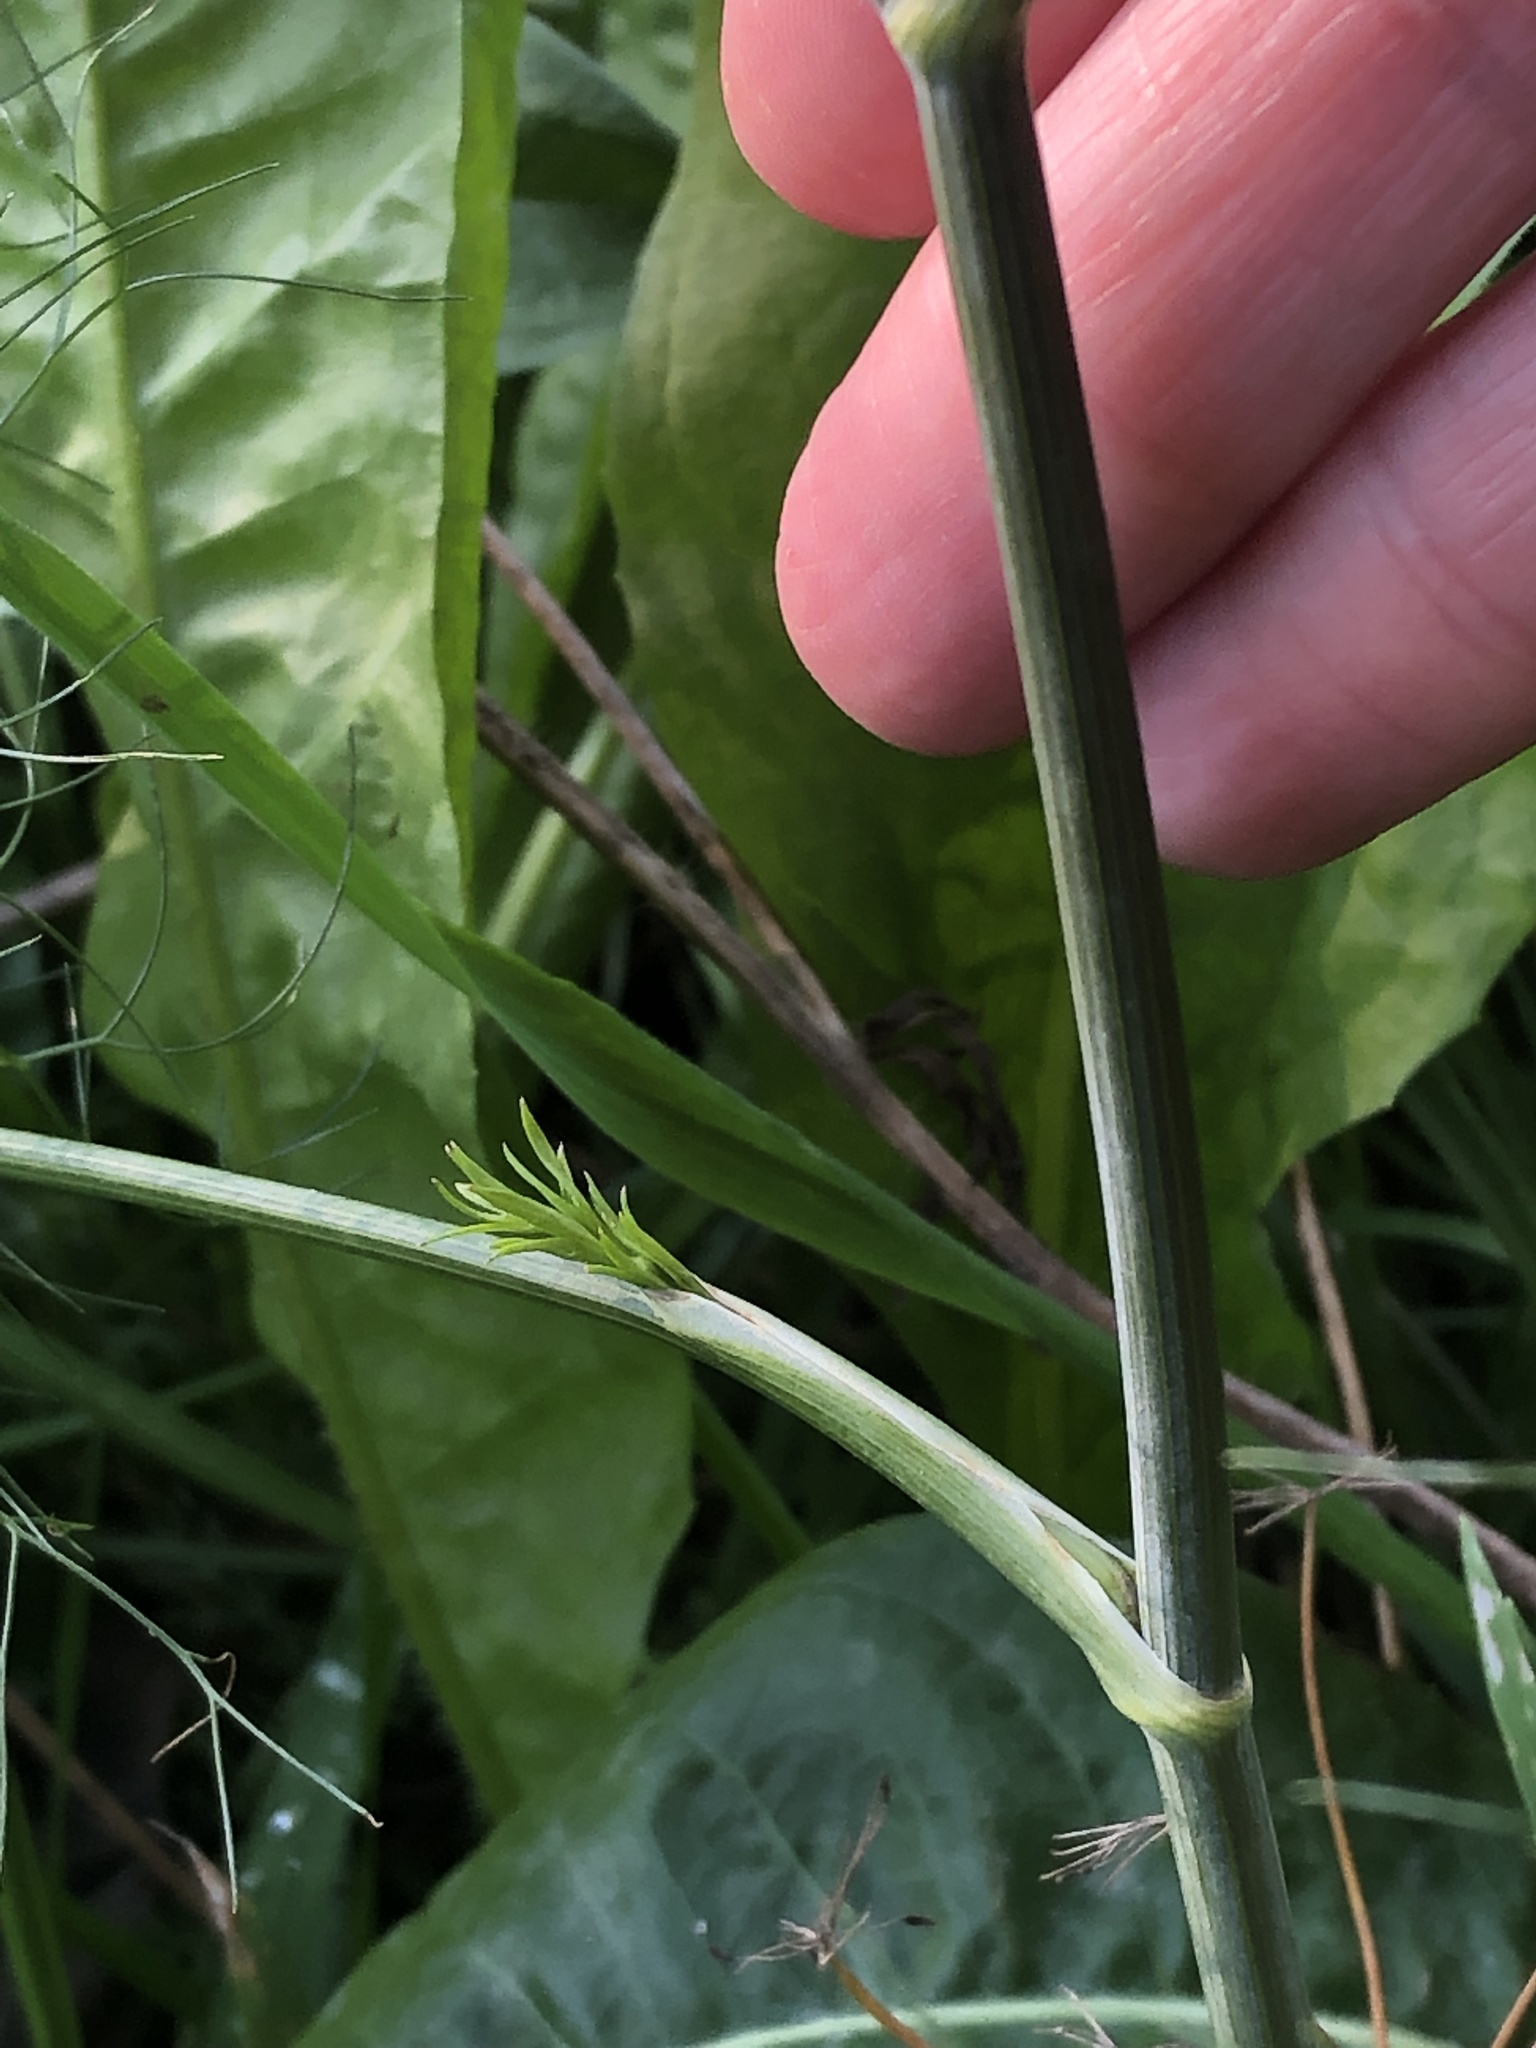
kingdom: Plantae
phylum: Tracheophyta
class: Magnoliopsida
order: Apiales
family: Apiaceae
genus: Foeniculum
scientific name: Foeniculum vulgare
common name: Fennel
